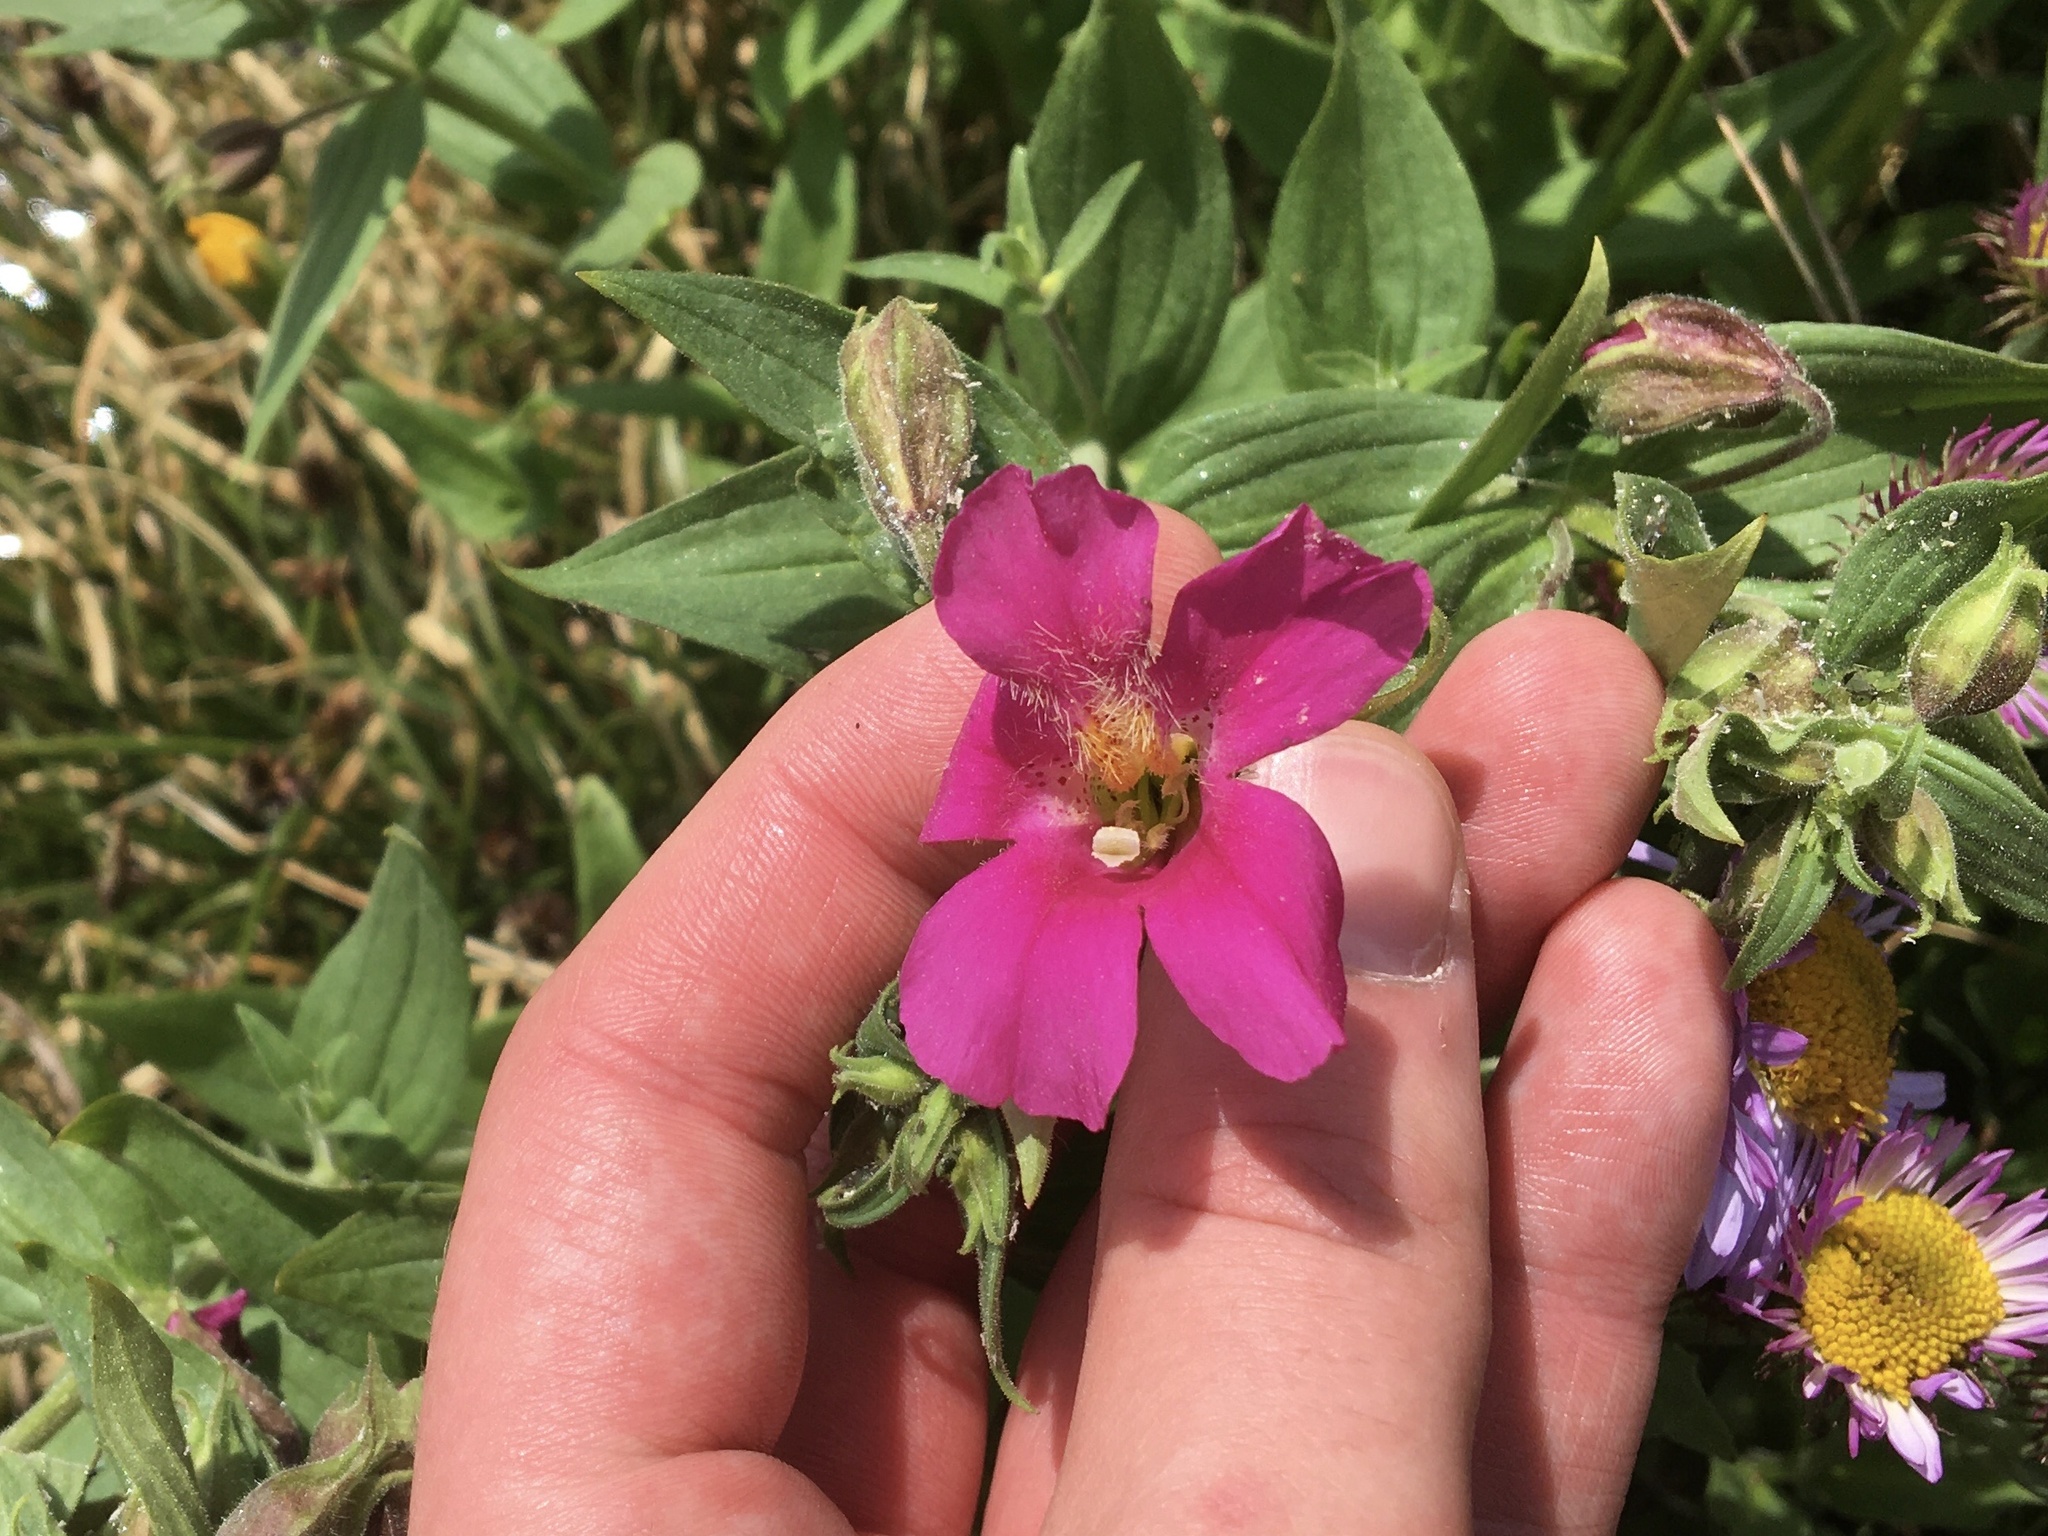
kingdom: Plantae
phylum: Tracheophyta
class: Magnoliopsida
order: Lamiales
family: Phrymaceae
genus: Erythranthe
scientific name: Erythranthe lewisii
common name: Lewis's monkey-flower
